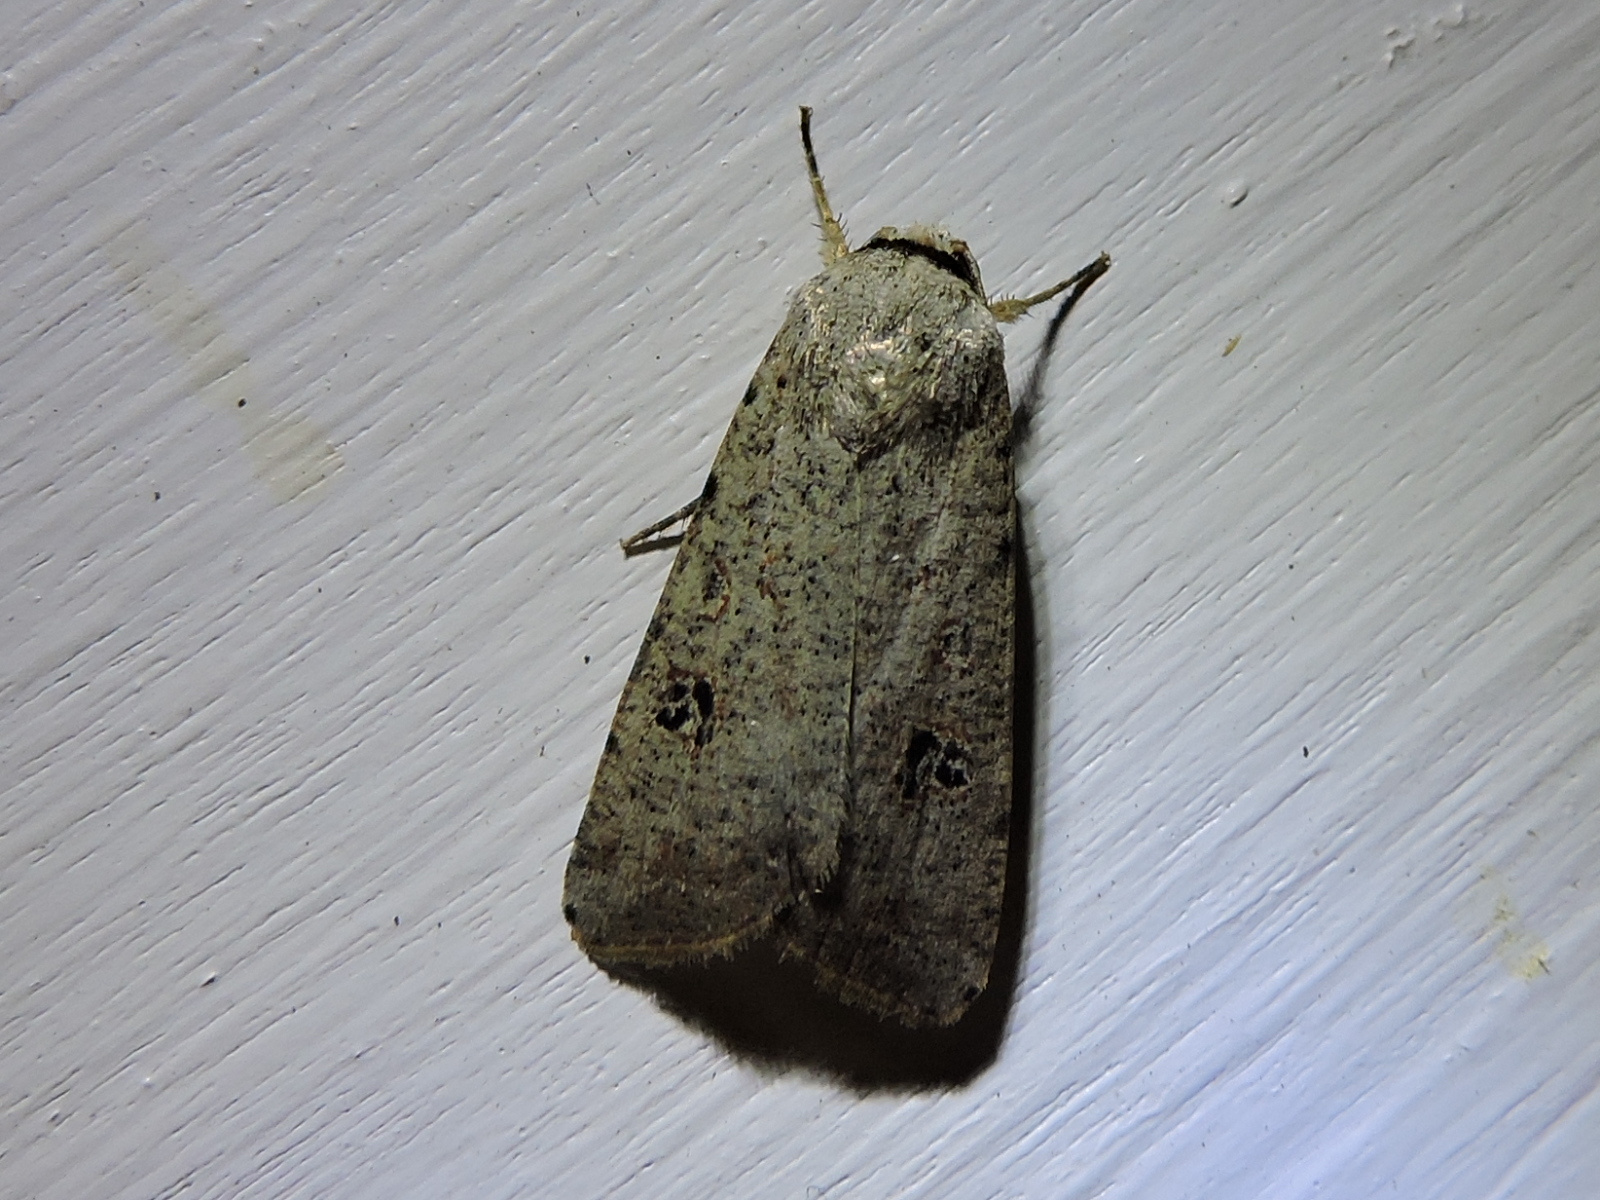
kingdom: Animalia
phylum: Arthropoda
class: Insecta
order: Lepidoptera
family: Noctuidae
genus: Anicla
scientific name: Anicla infecta
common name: Green cutworm
